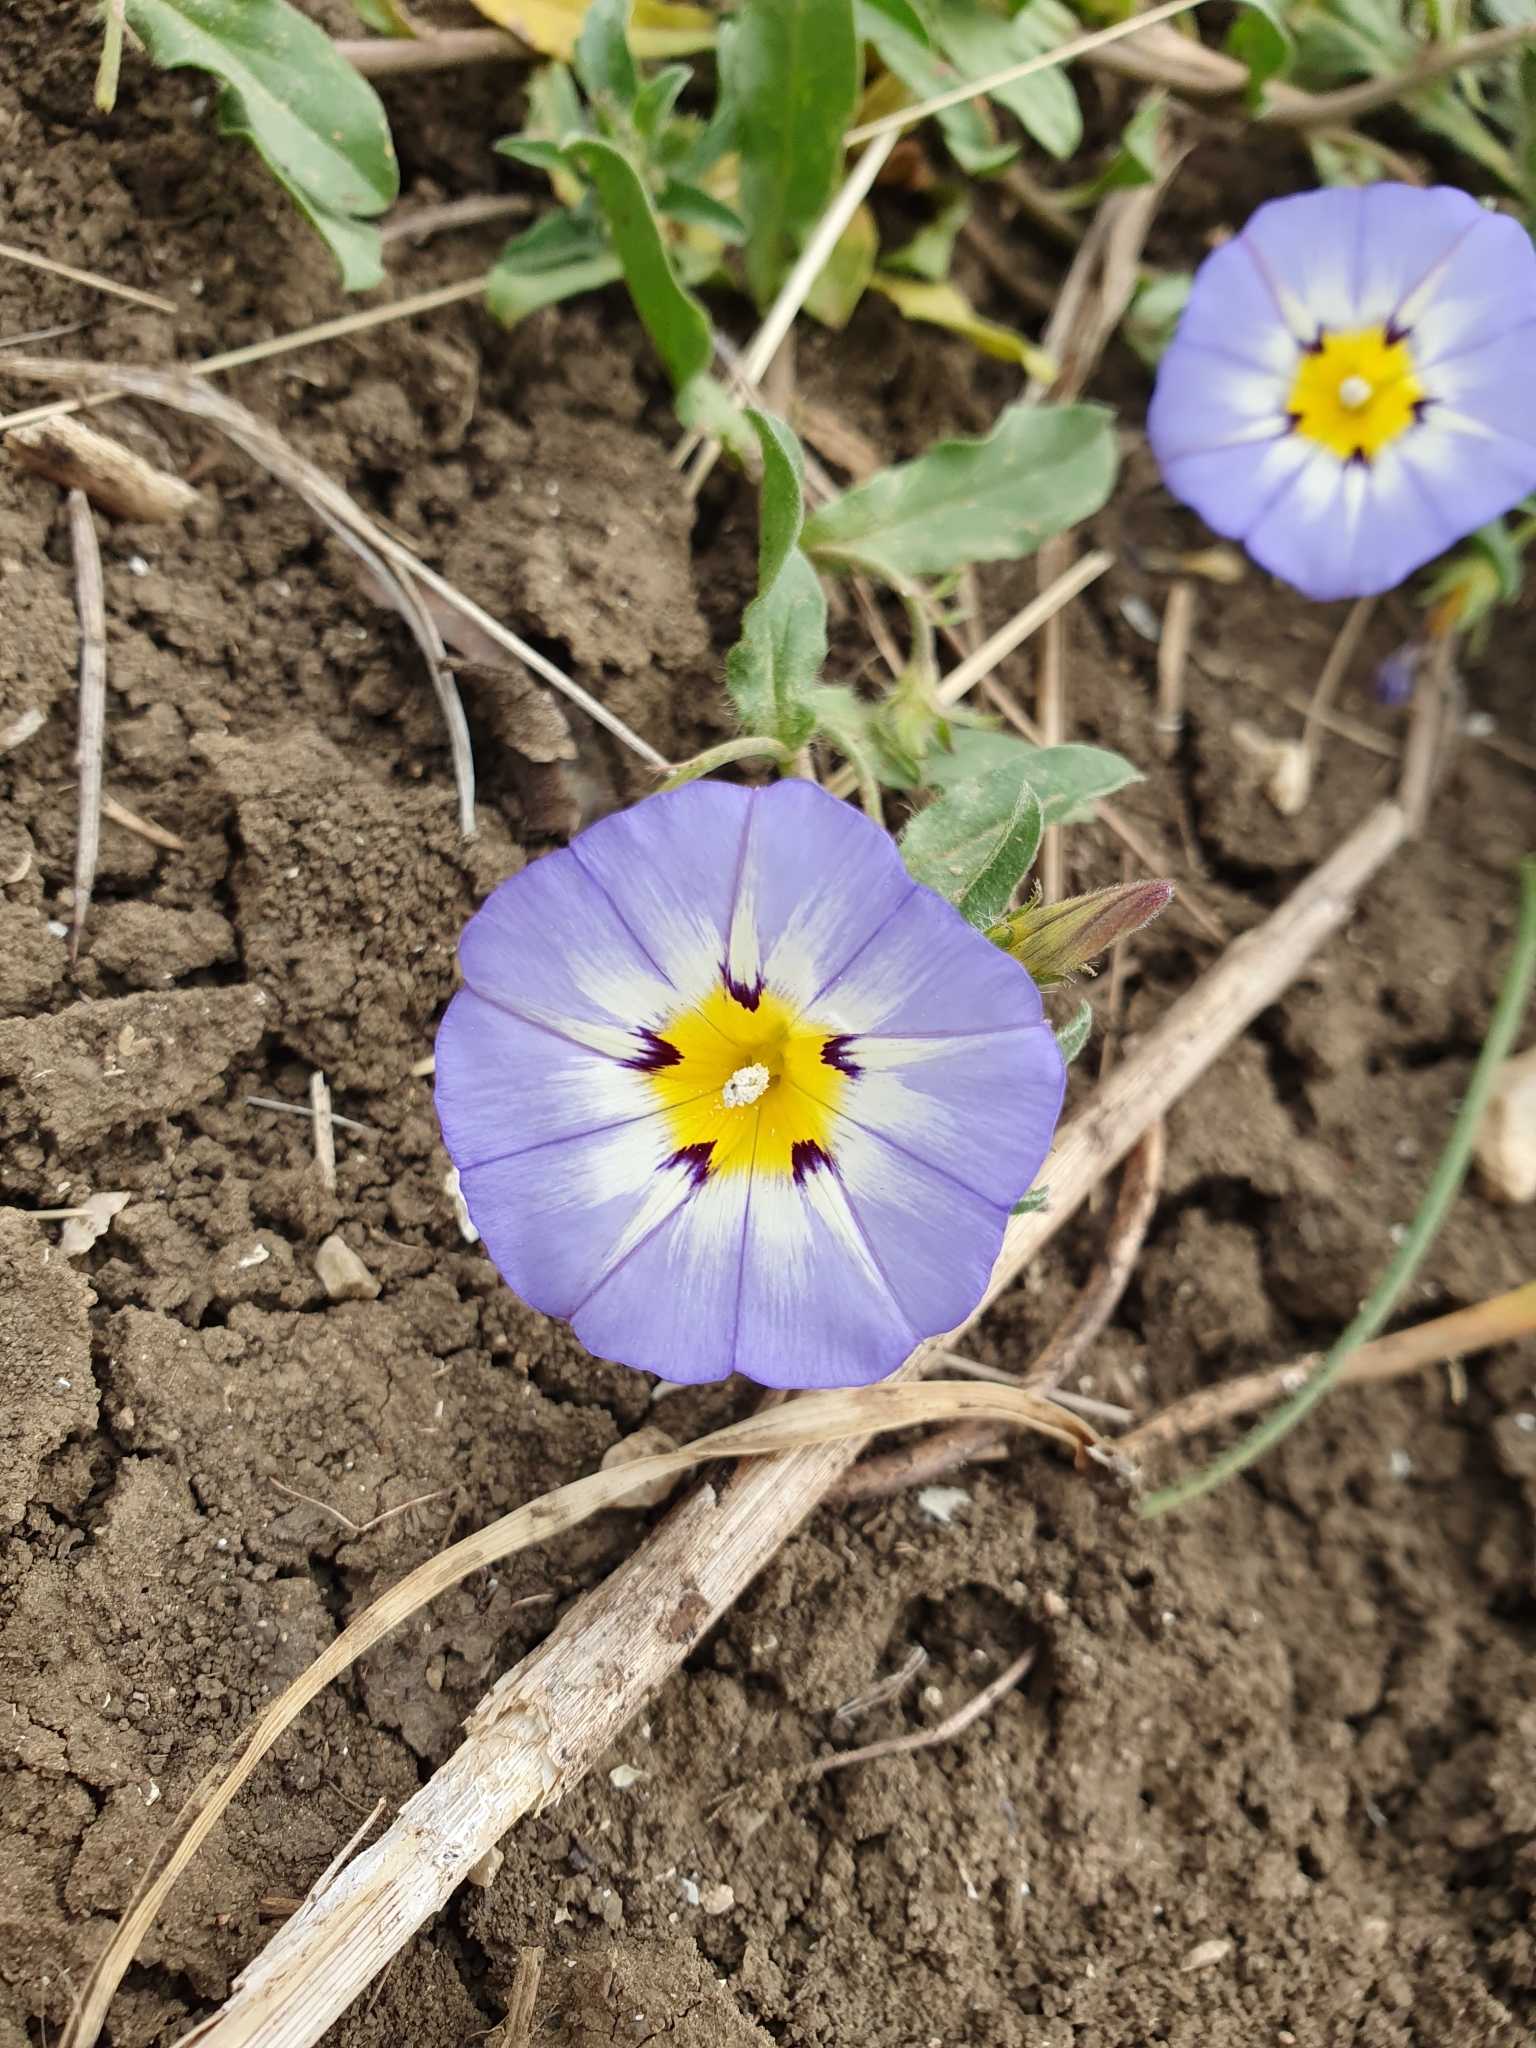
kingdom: Plantae
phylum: Tracheophyta
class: Magnoliopsida
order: Solanales
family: Convolvulaceae
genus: Convolvulus
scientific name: Convolvulus tricolor
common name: Dwarf morning-glory
